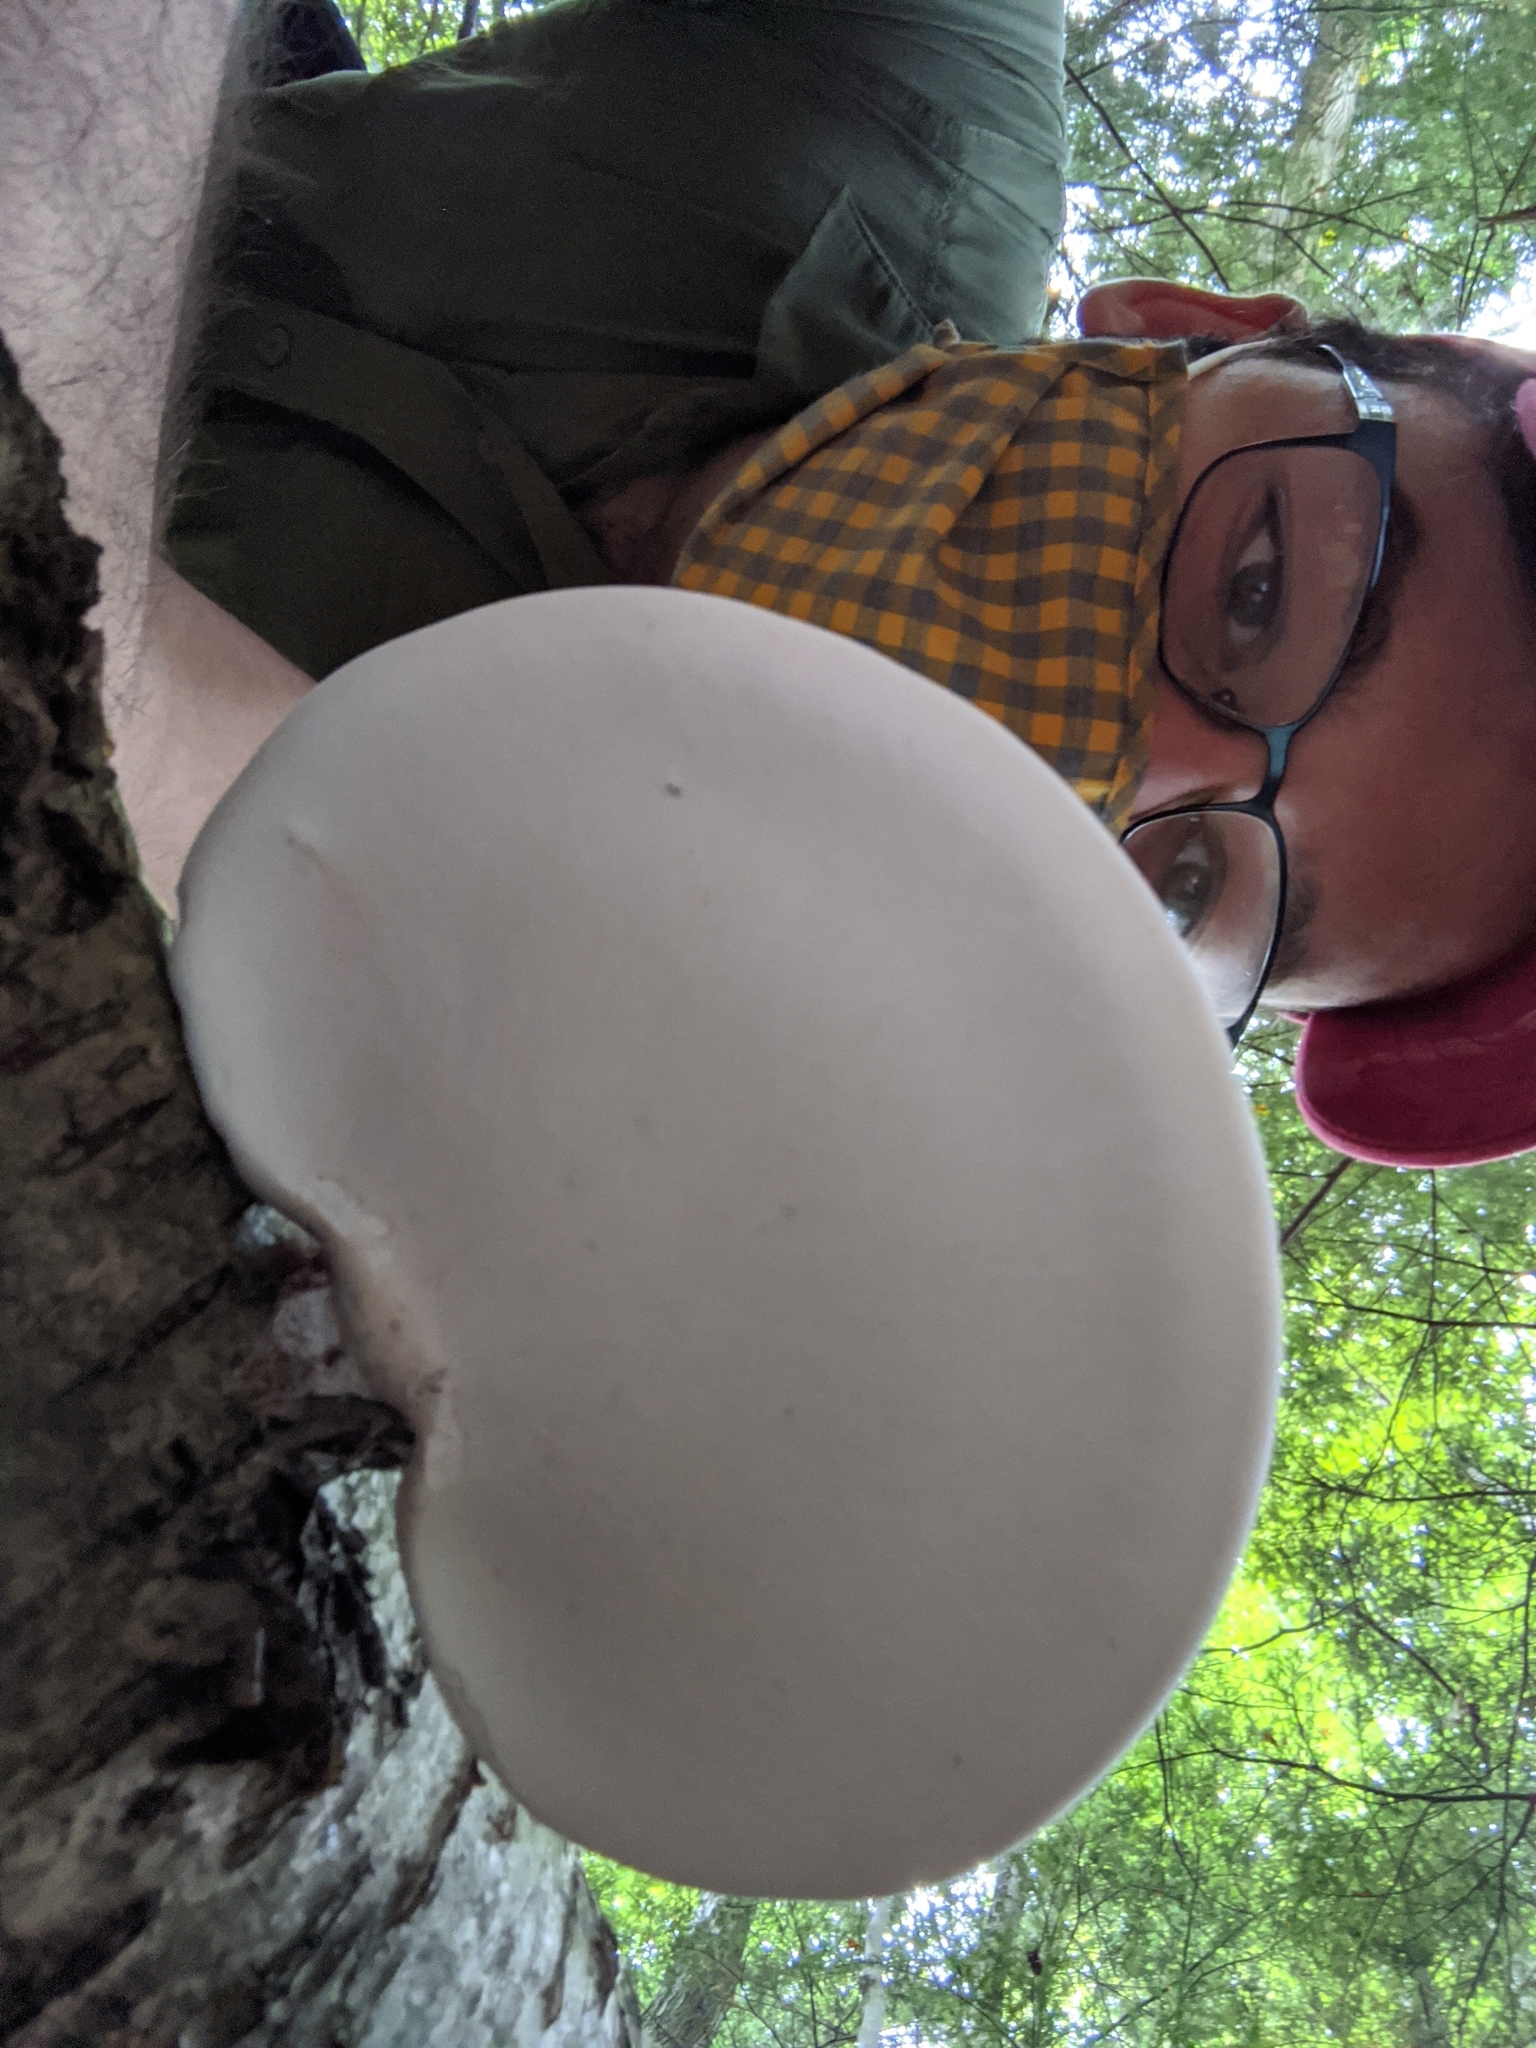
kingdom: Fungi
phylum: Basidiomycota
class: Agaricomycetes
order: Polyporales
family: Fomitopsidaceae
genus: Fomitopsis
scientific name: Fomitopsis betulina
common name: Birch polypore
